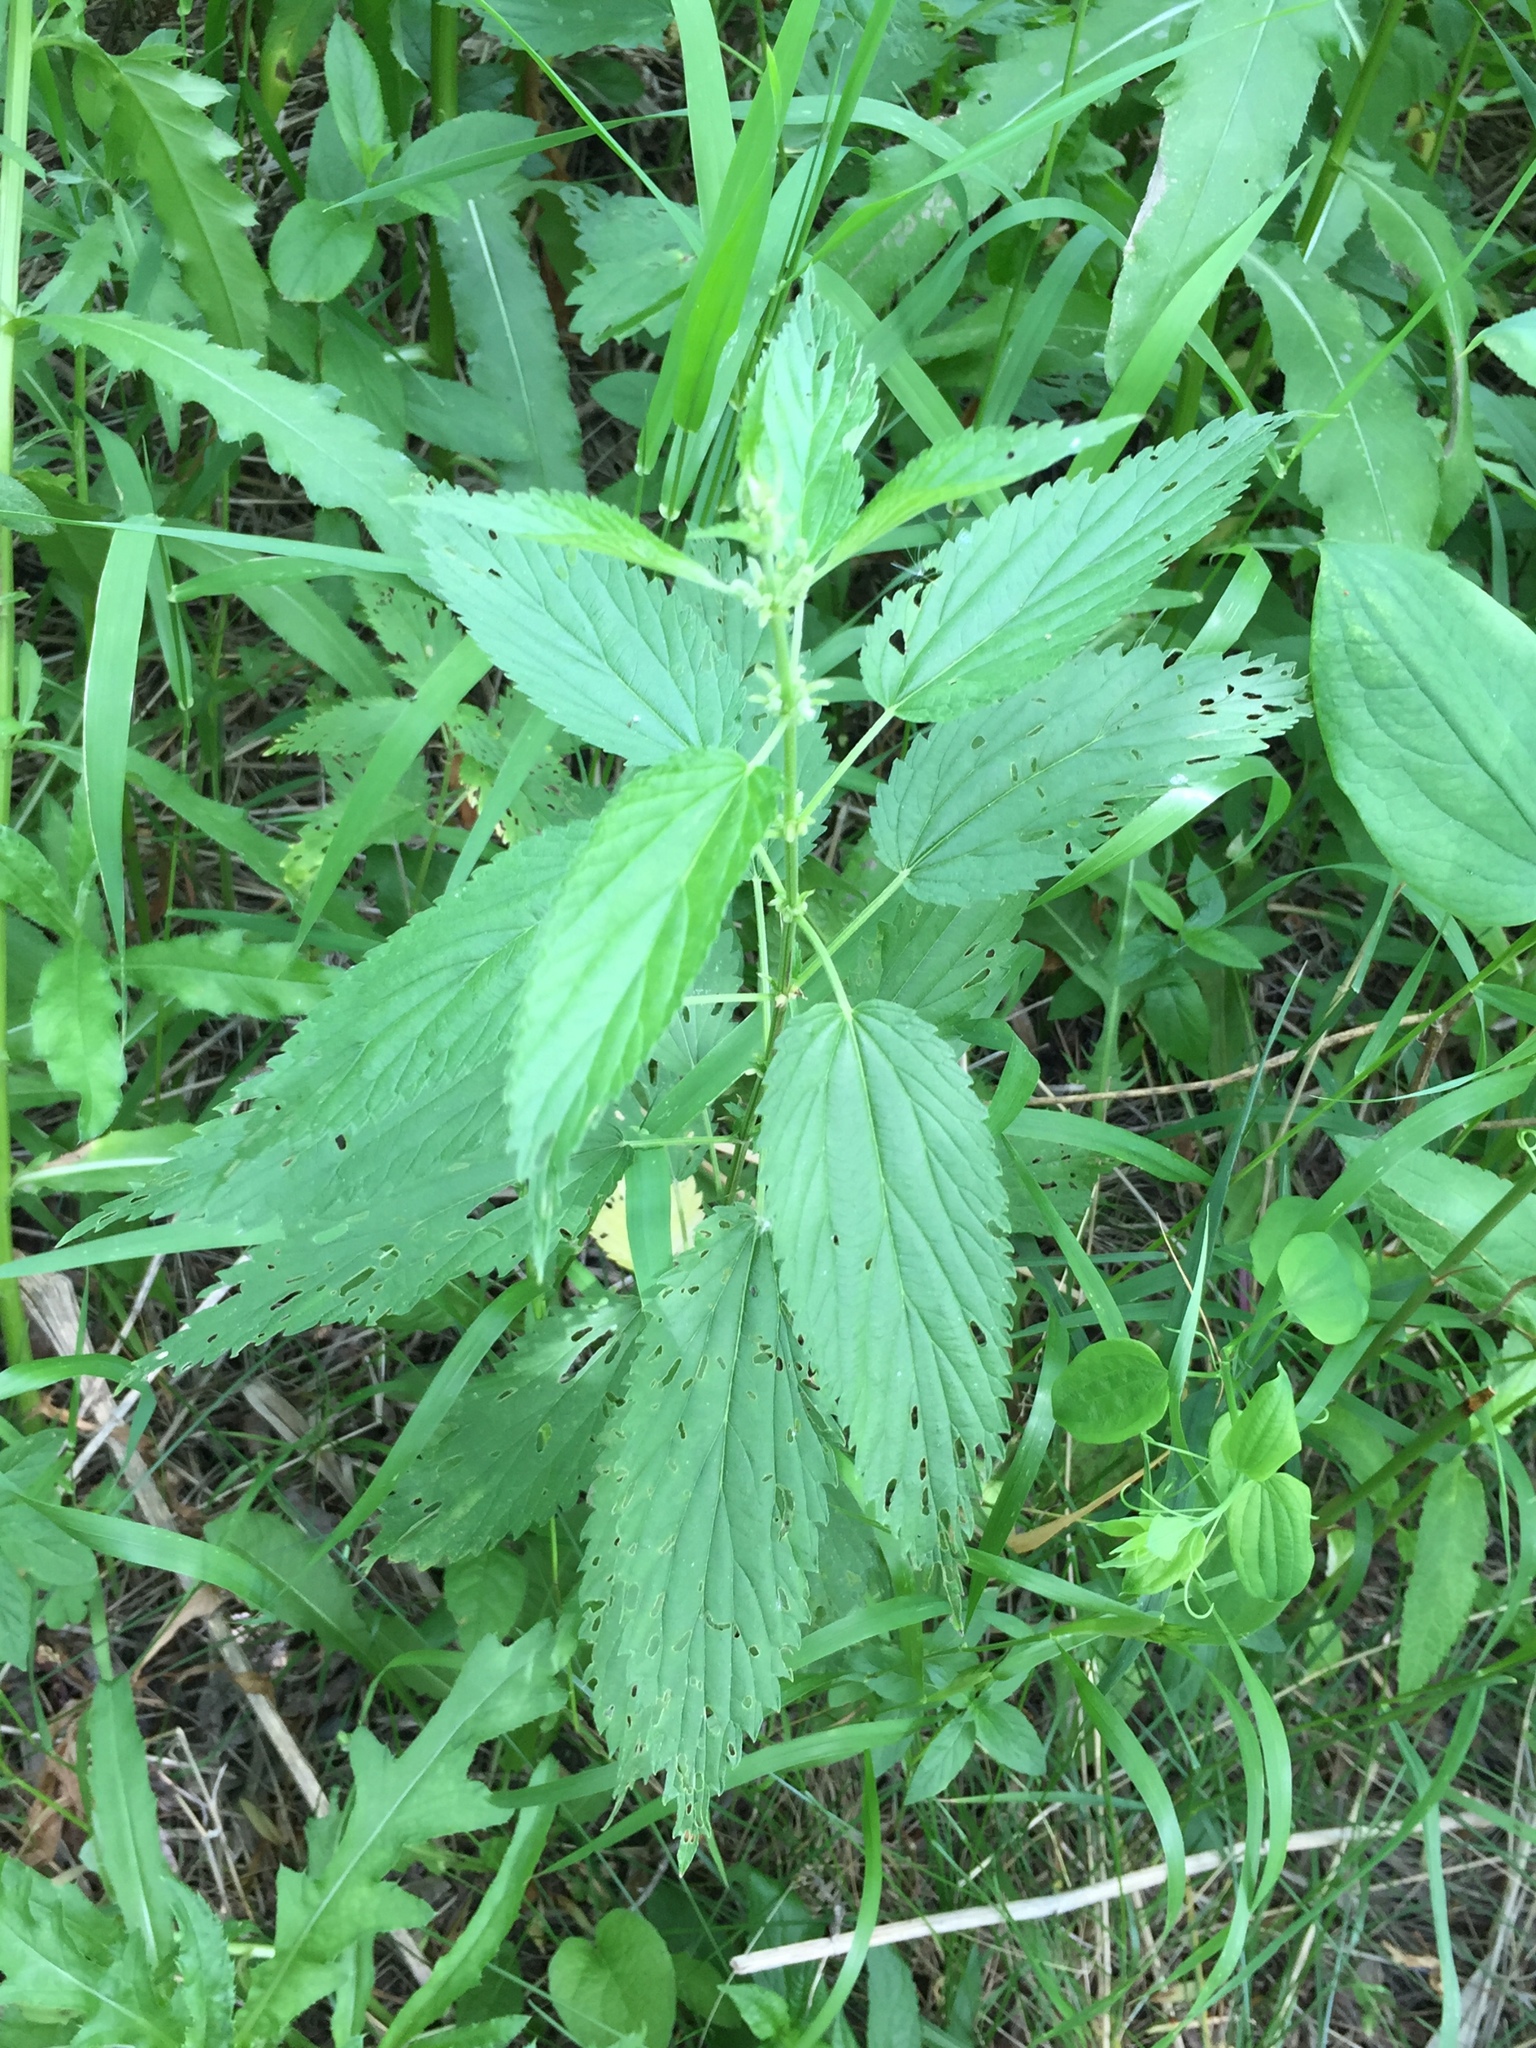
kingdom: Plantae
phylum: Tracheophyta
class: Magnoliopsida
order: Rosales
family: Urticaceae
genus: Urtica
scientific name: Urtica gracilis
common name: Slender stinging nettle
